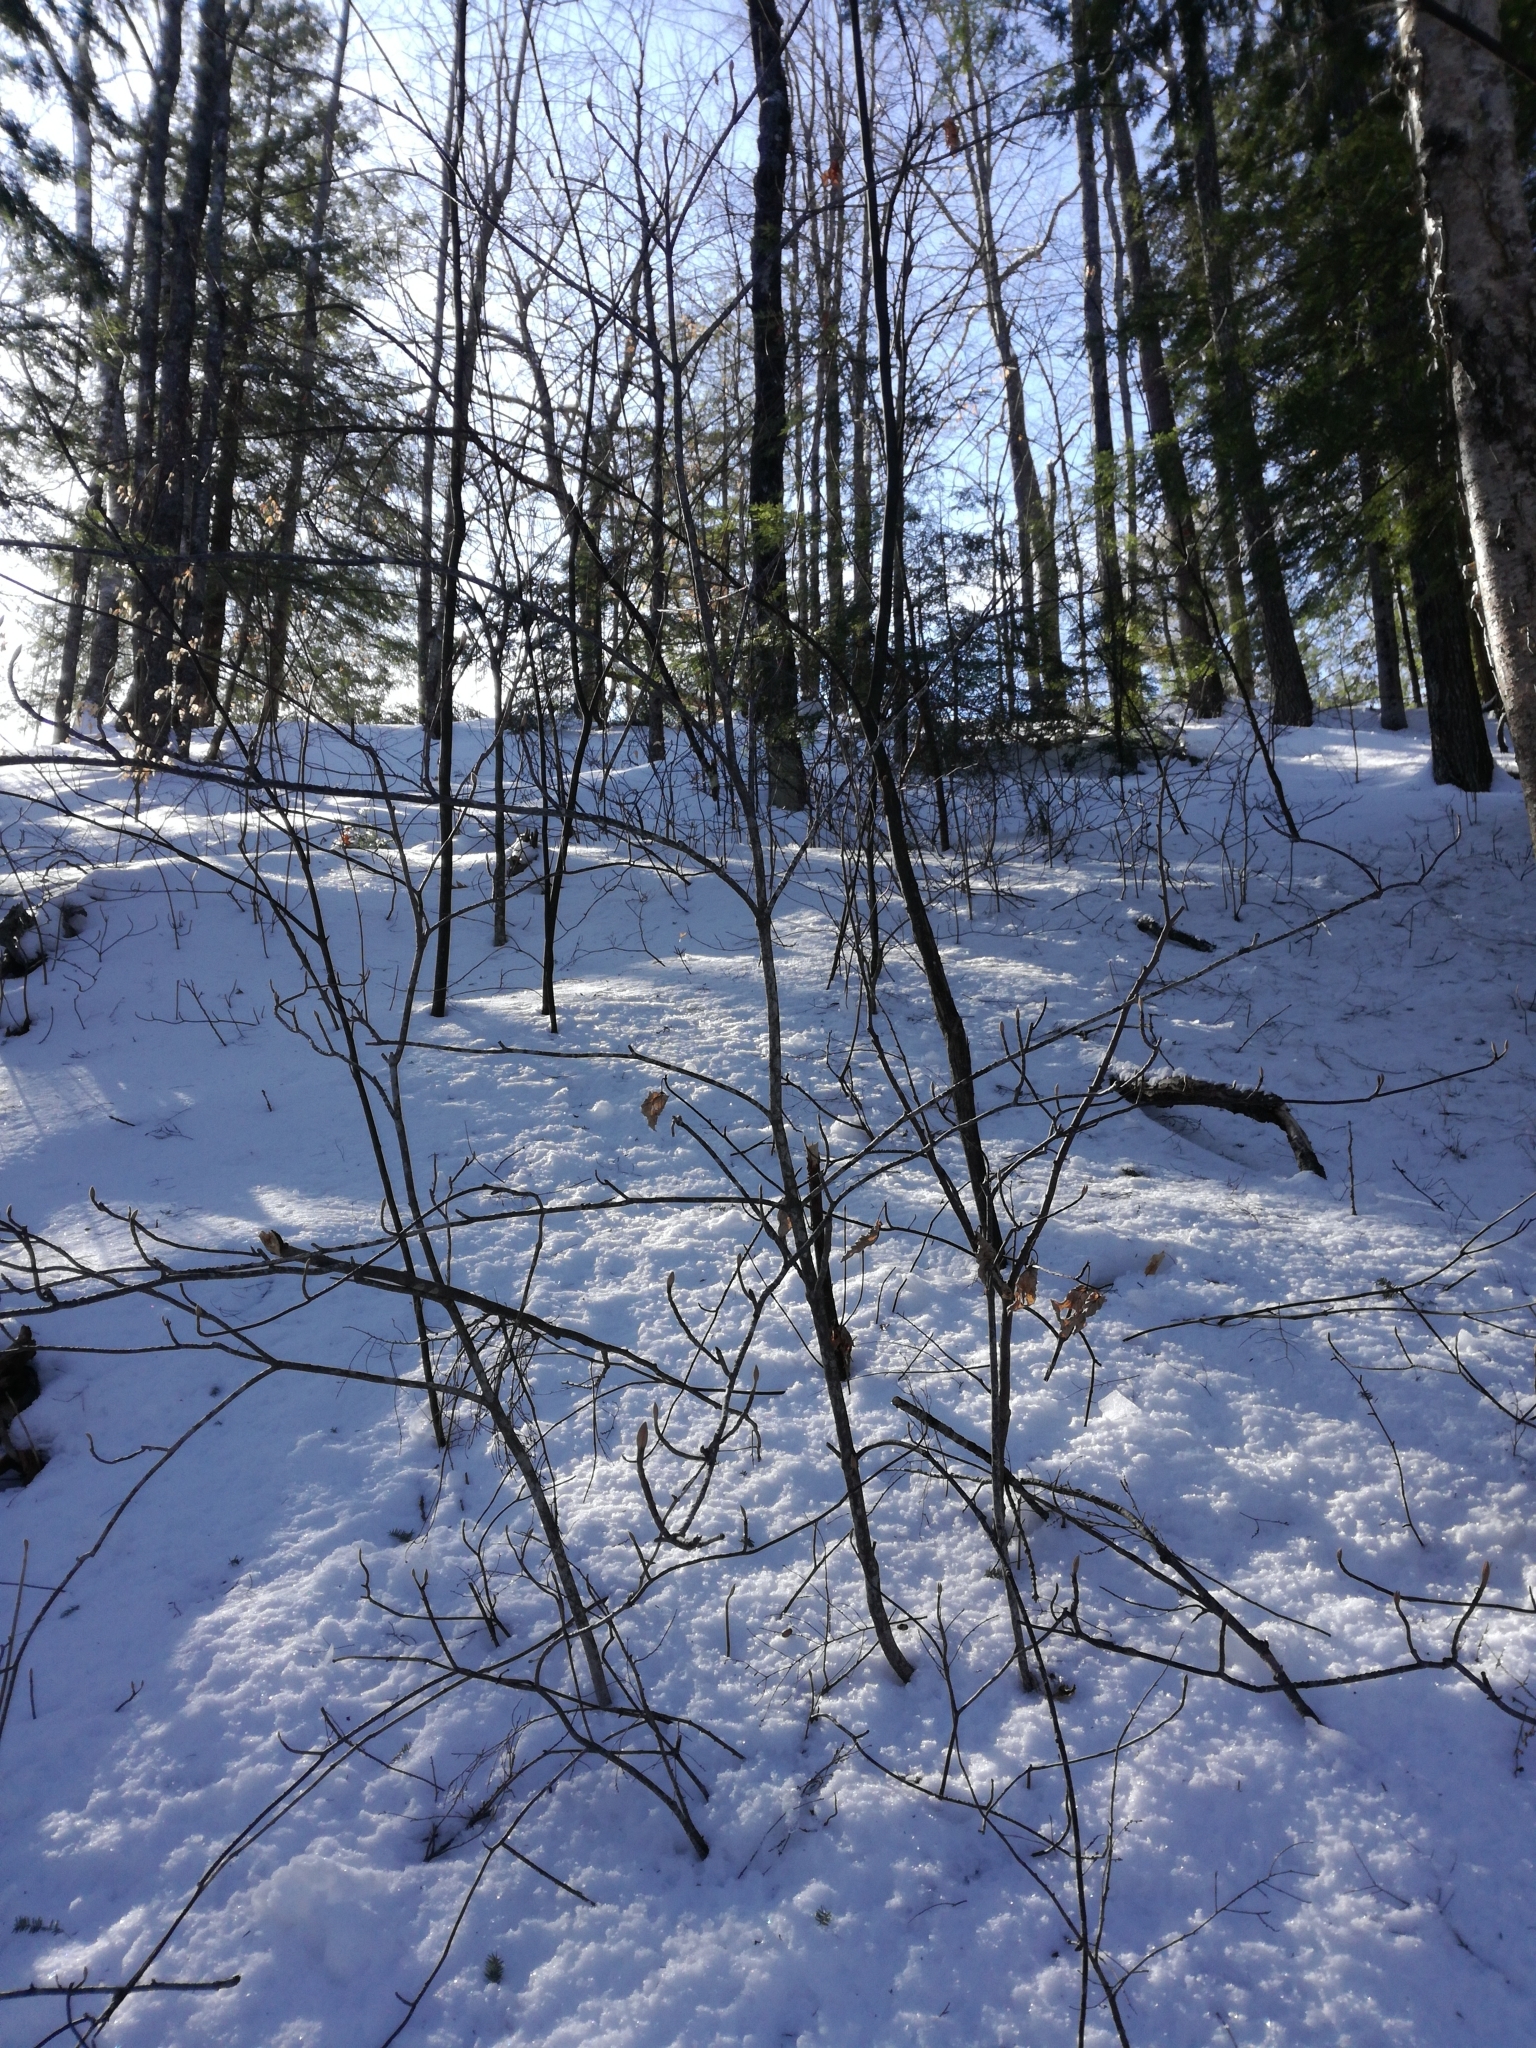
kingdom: Plantae
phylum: Tracheophyta
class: Magnoliopsida
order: Dipsacales
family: Viburnaceae
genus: Viburnum
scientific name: Viburnum lantanoides
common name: Hobblebush
